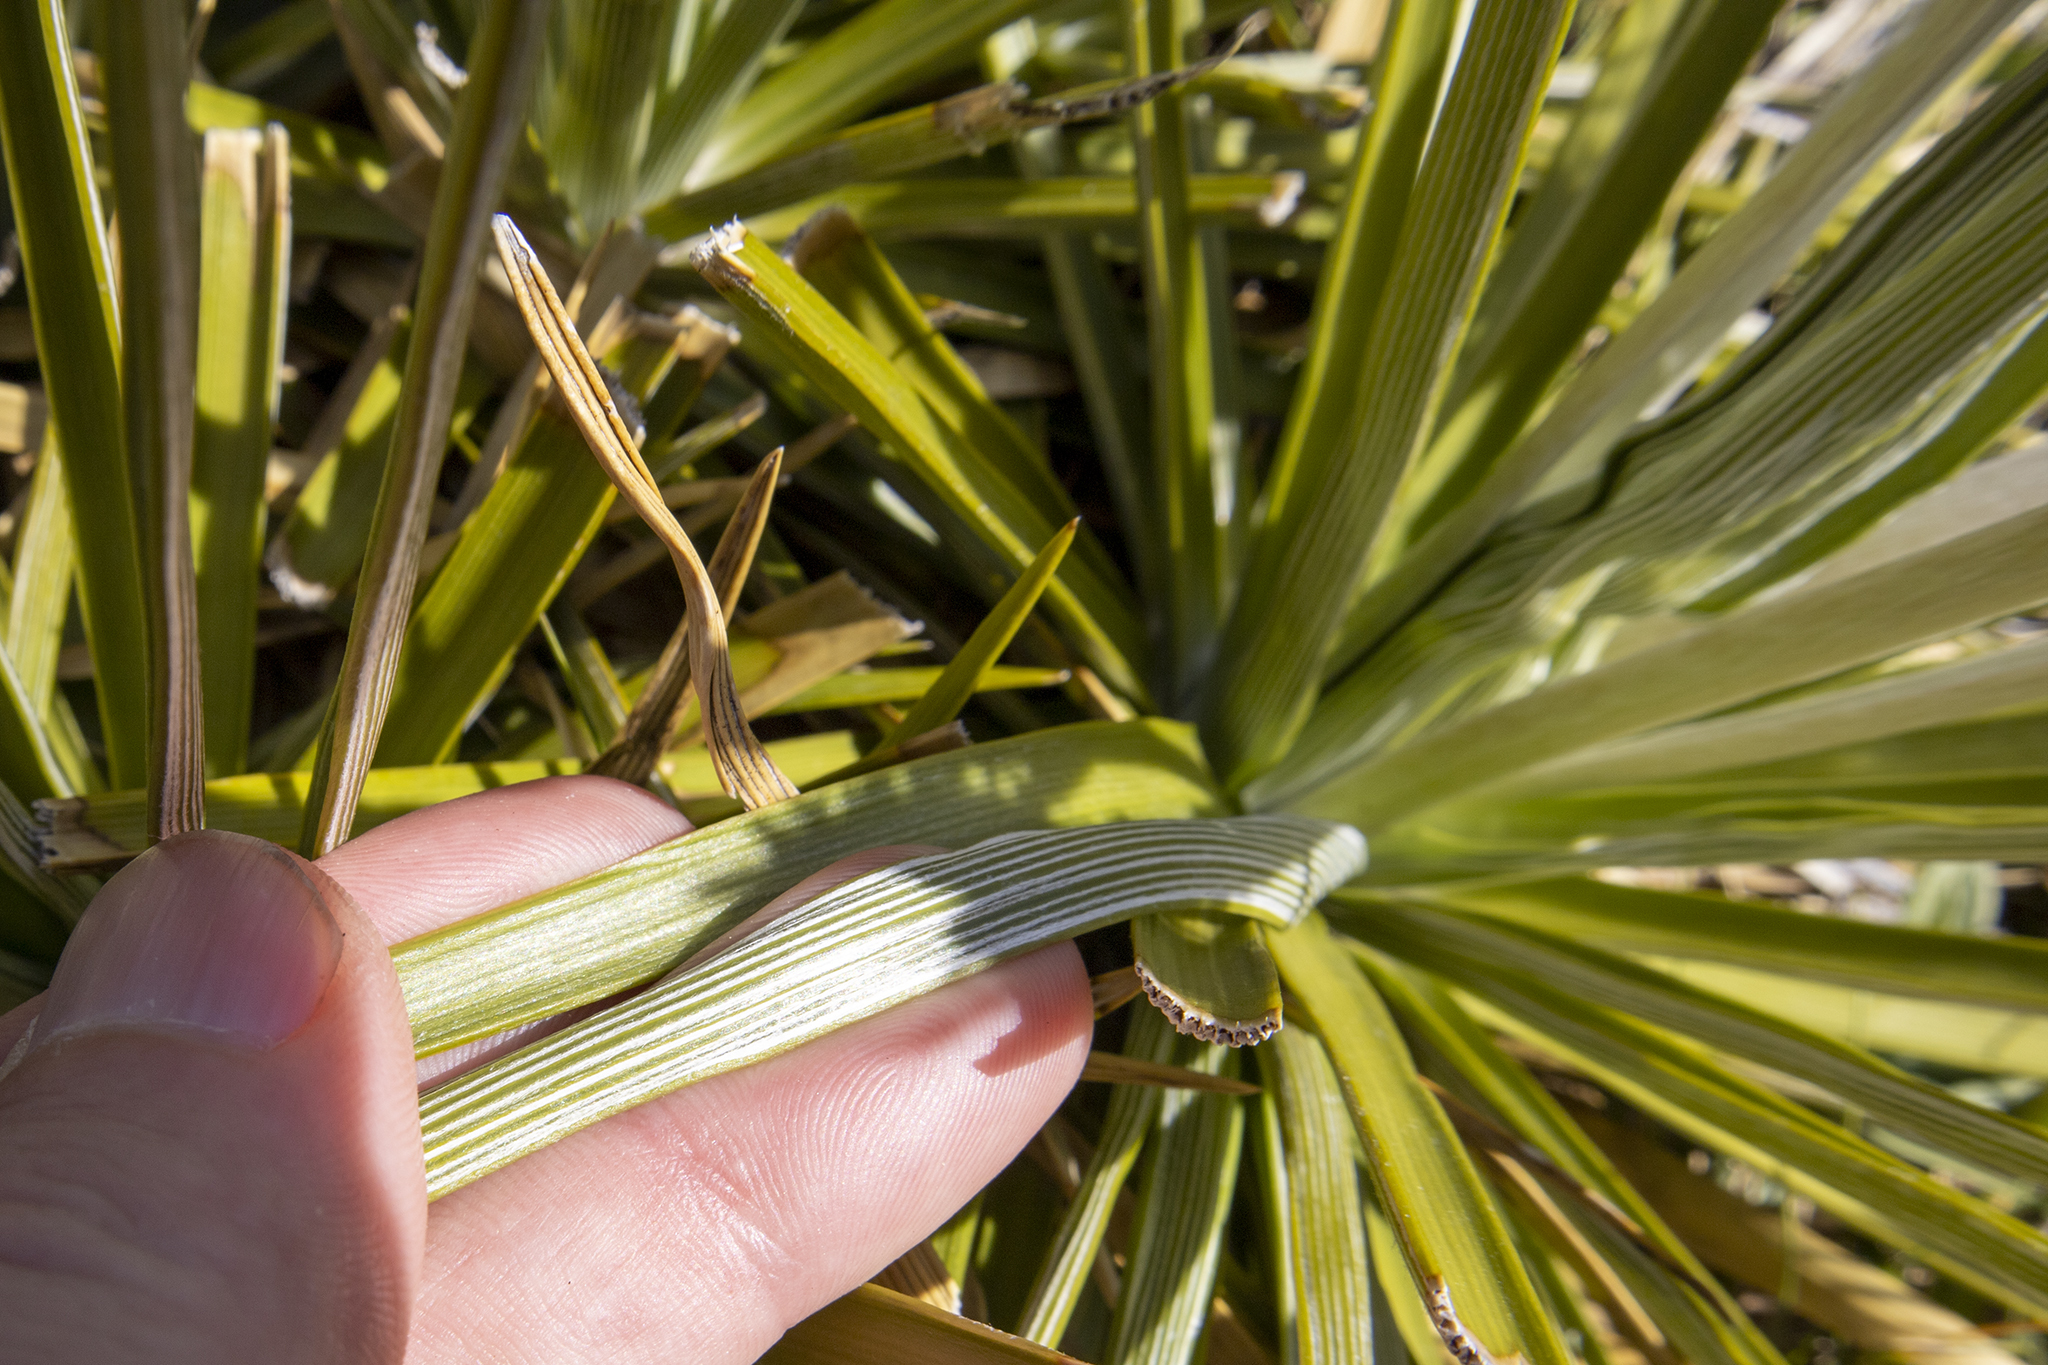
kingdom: Plantae
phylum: Tracheophyta
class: Magnoliopsida
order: Asterales
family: Asteraceae
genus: Celmisia
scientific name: Celmisia lyallii
